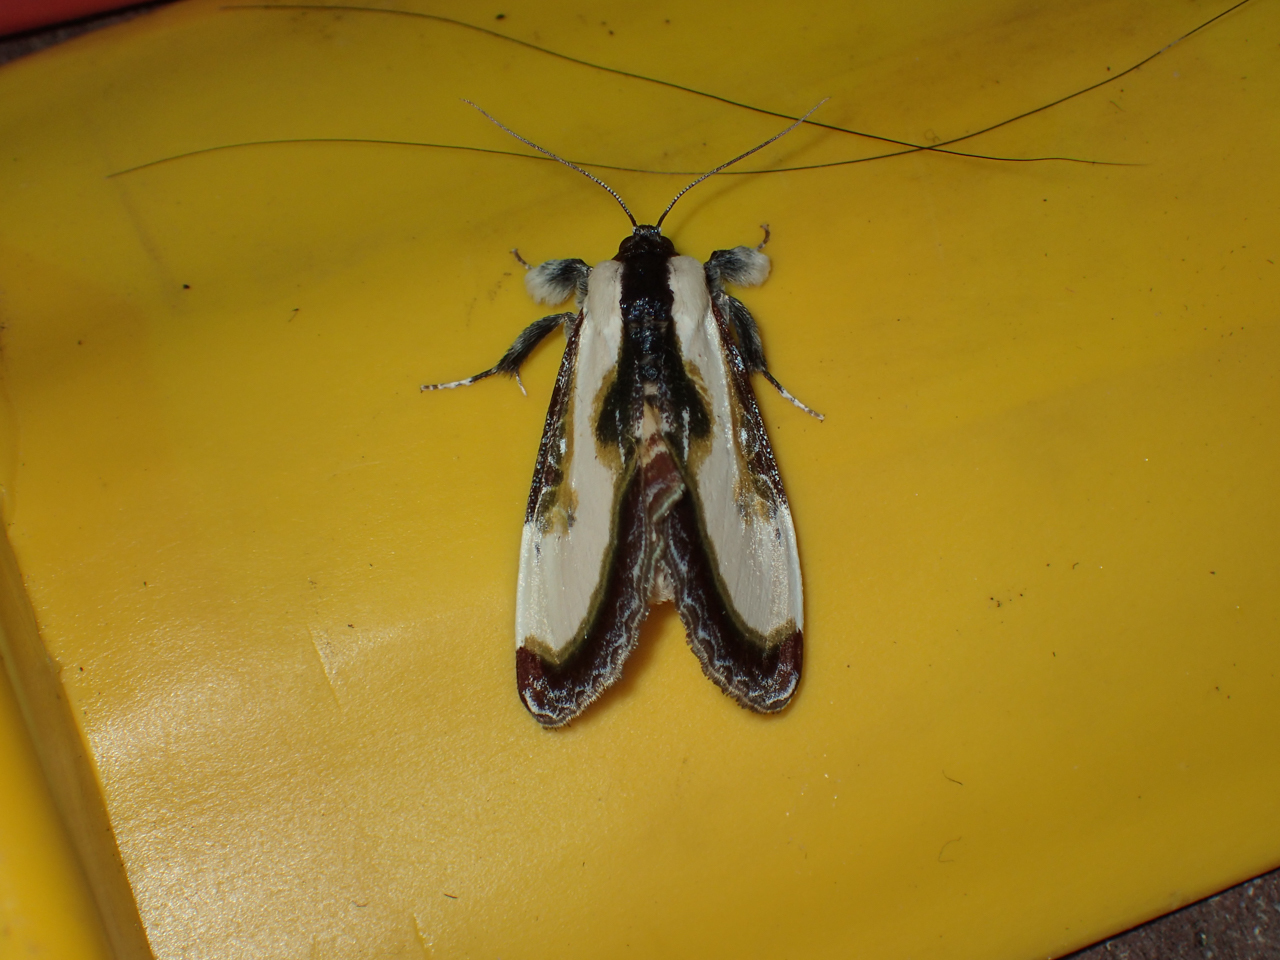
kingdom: Animalia
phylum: Arthropoda
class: Insecta
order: Lepidoptera
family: Noctuidae
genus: Eudryas
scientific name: Eudryas grata
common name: Beautiful wood-nymph
